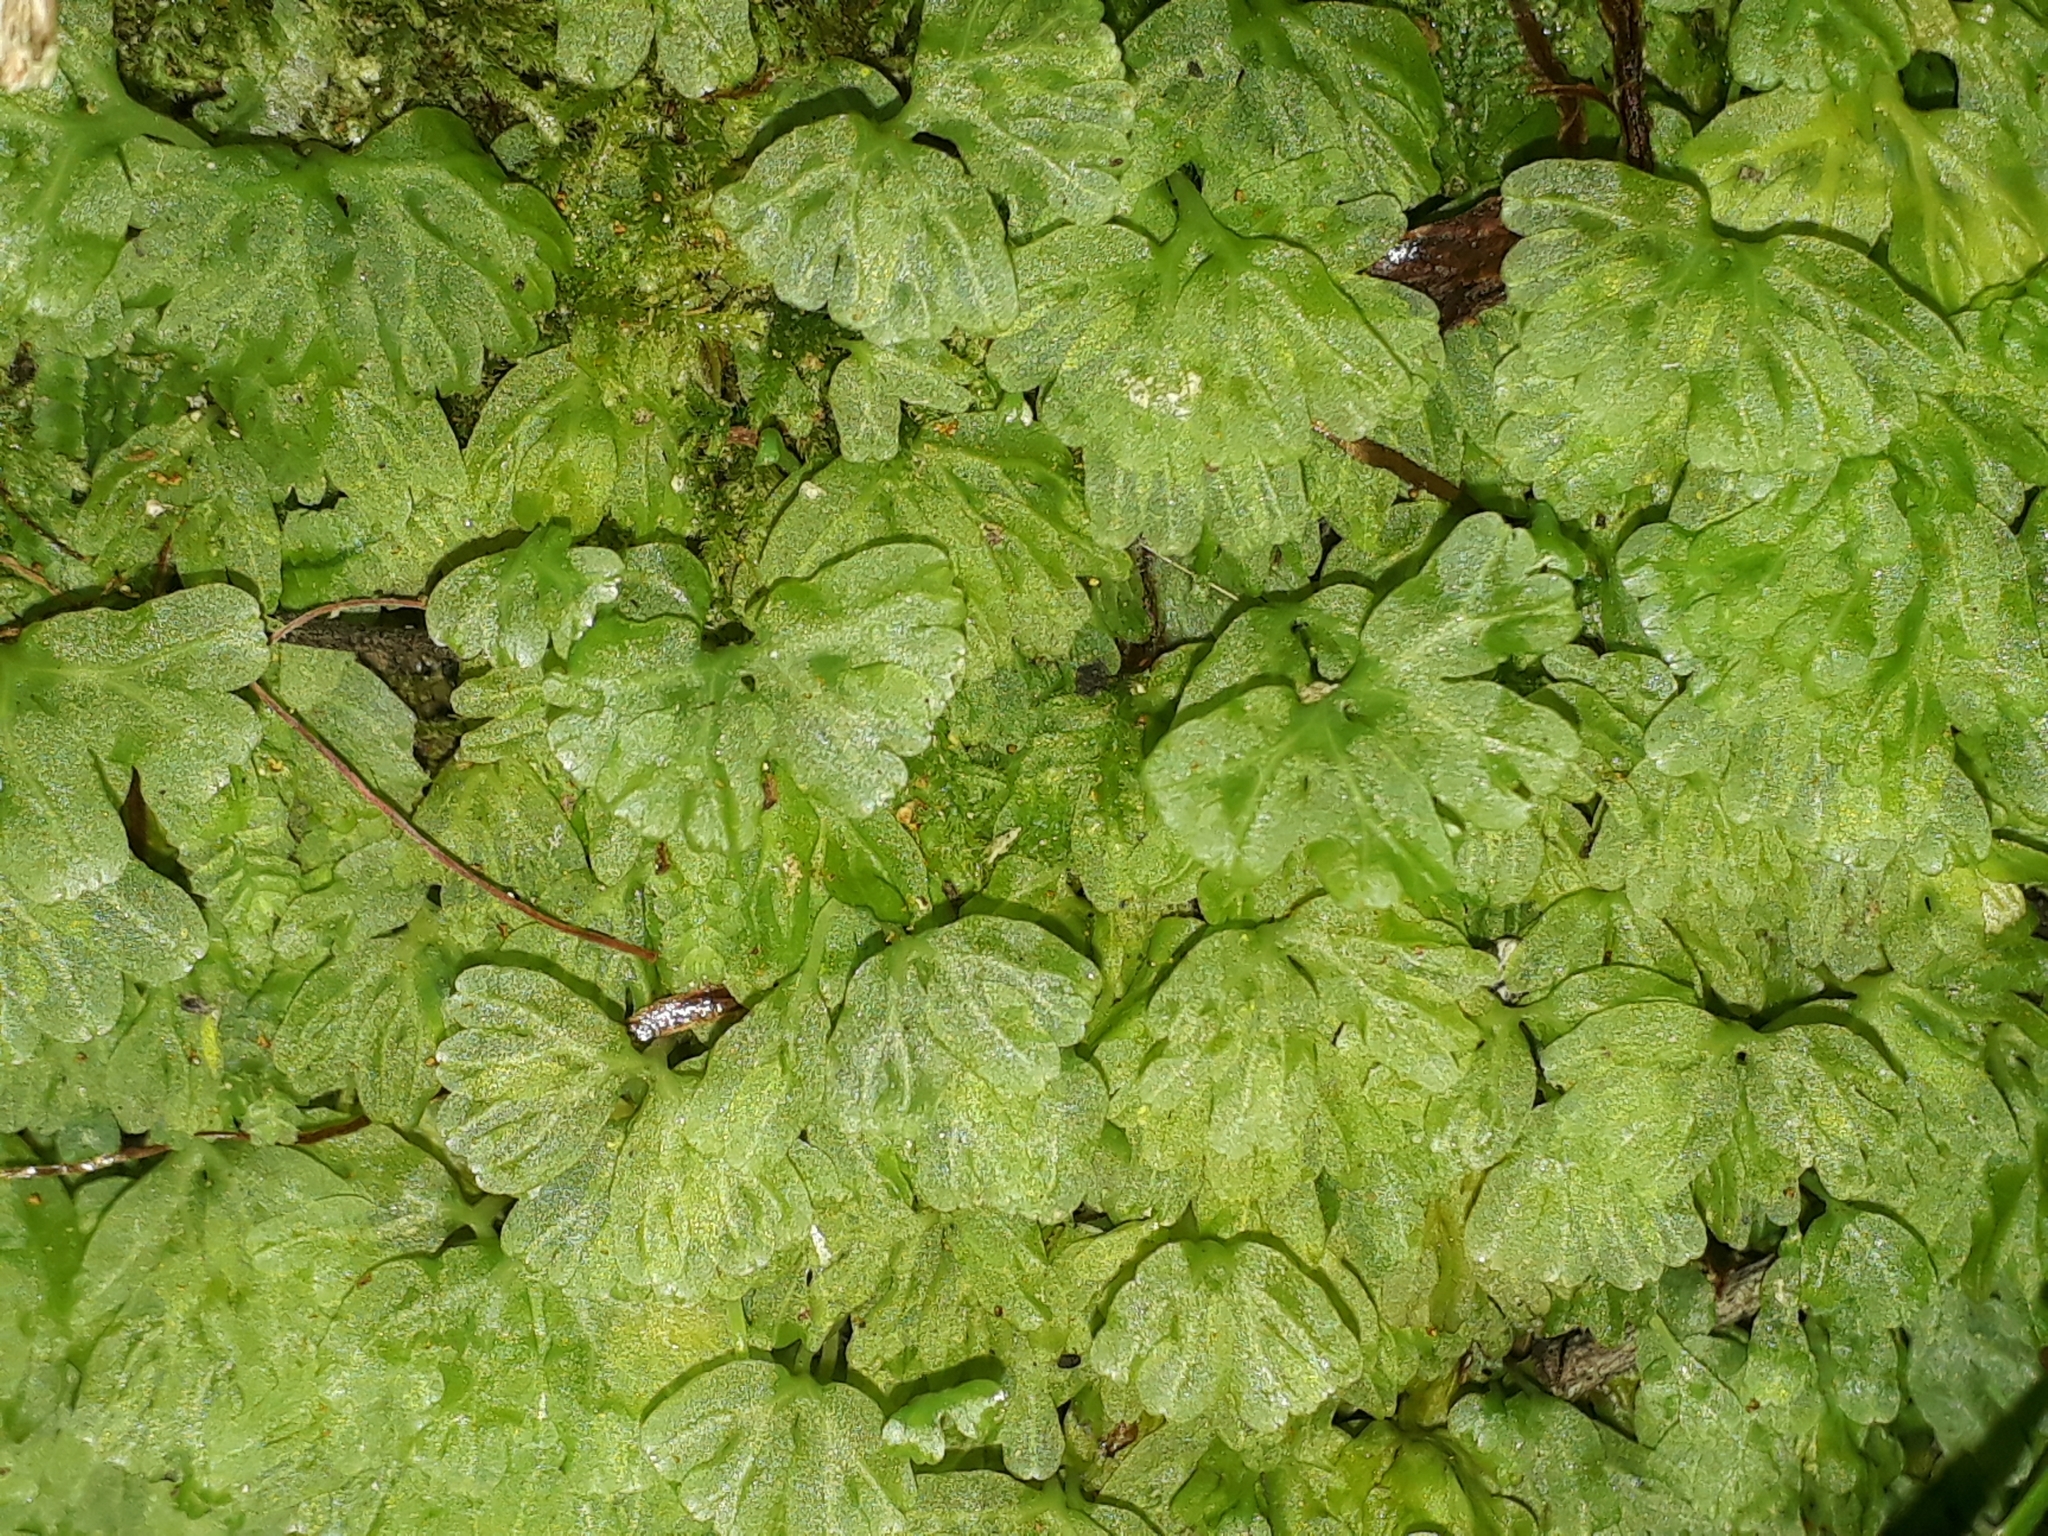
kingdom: Plantae
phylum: Marchantiophyta
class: Jungermanniopsida
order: Pallaviciniales
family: Hymenophytaceae
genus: Hymenophyton
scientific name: Hymenophyton flabellatum
